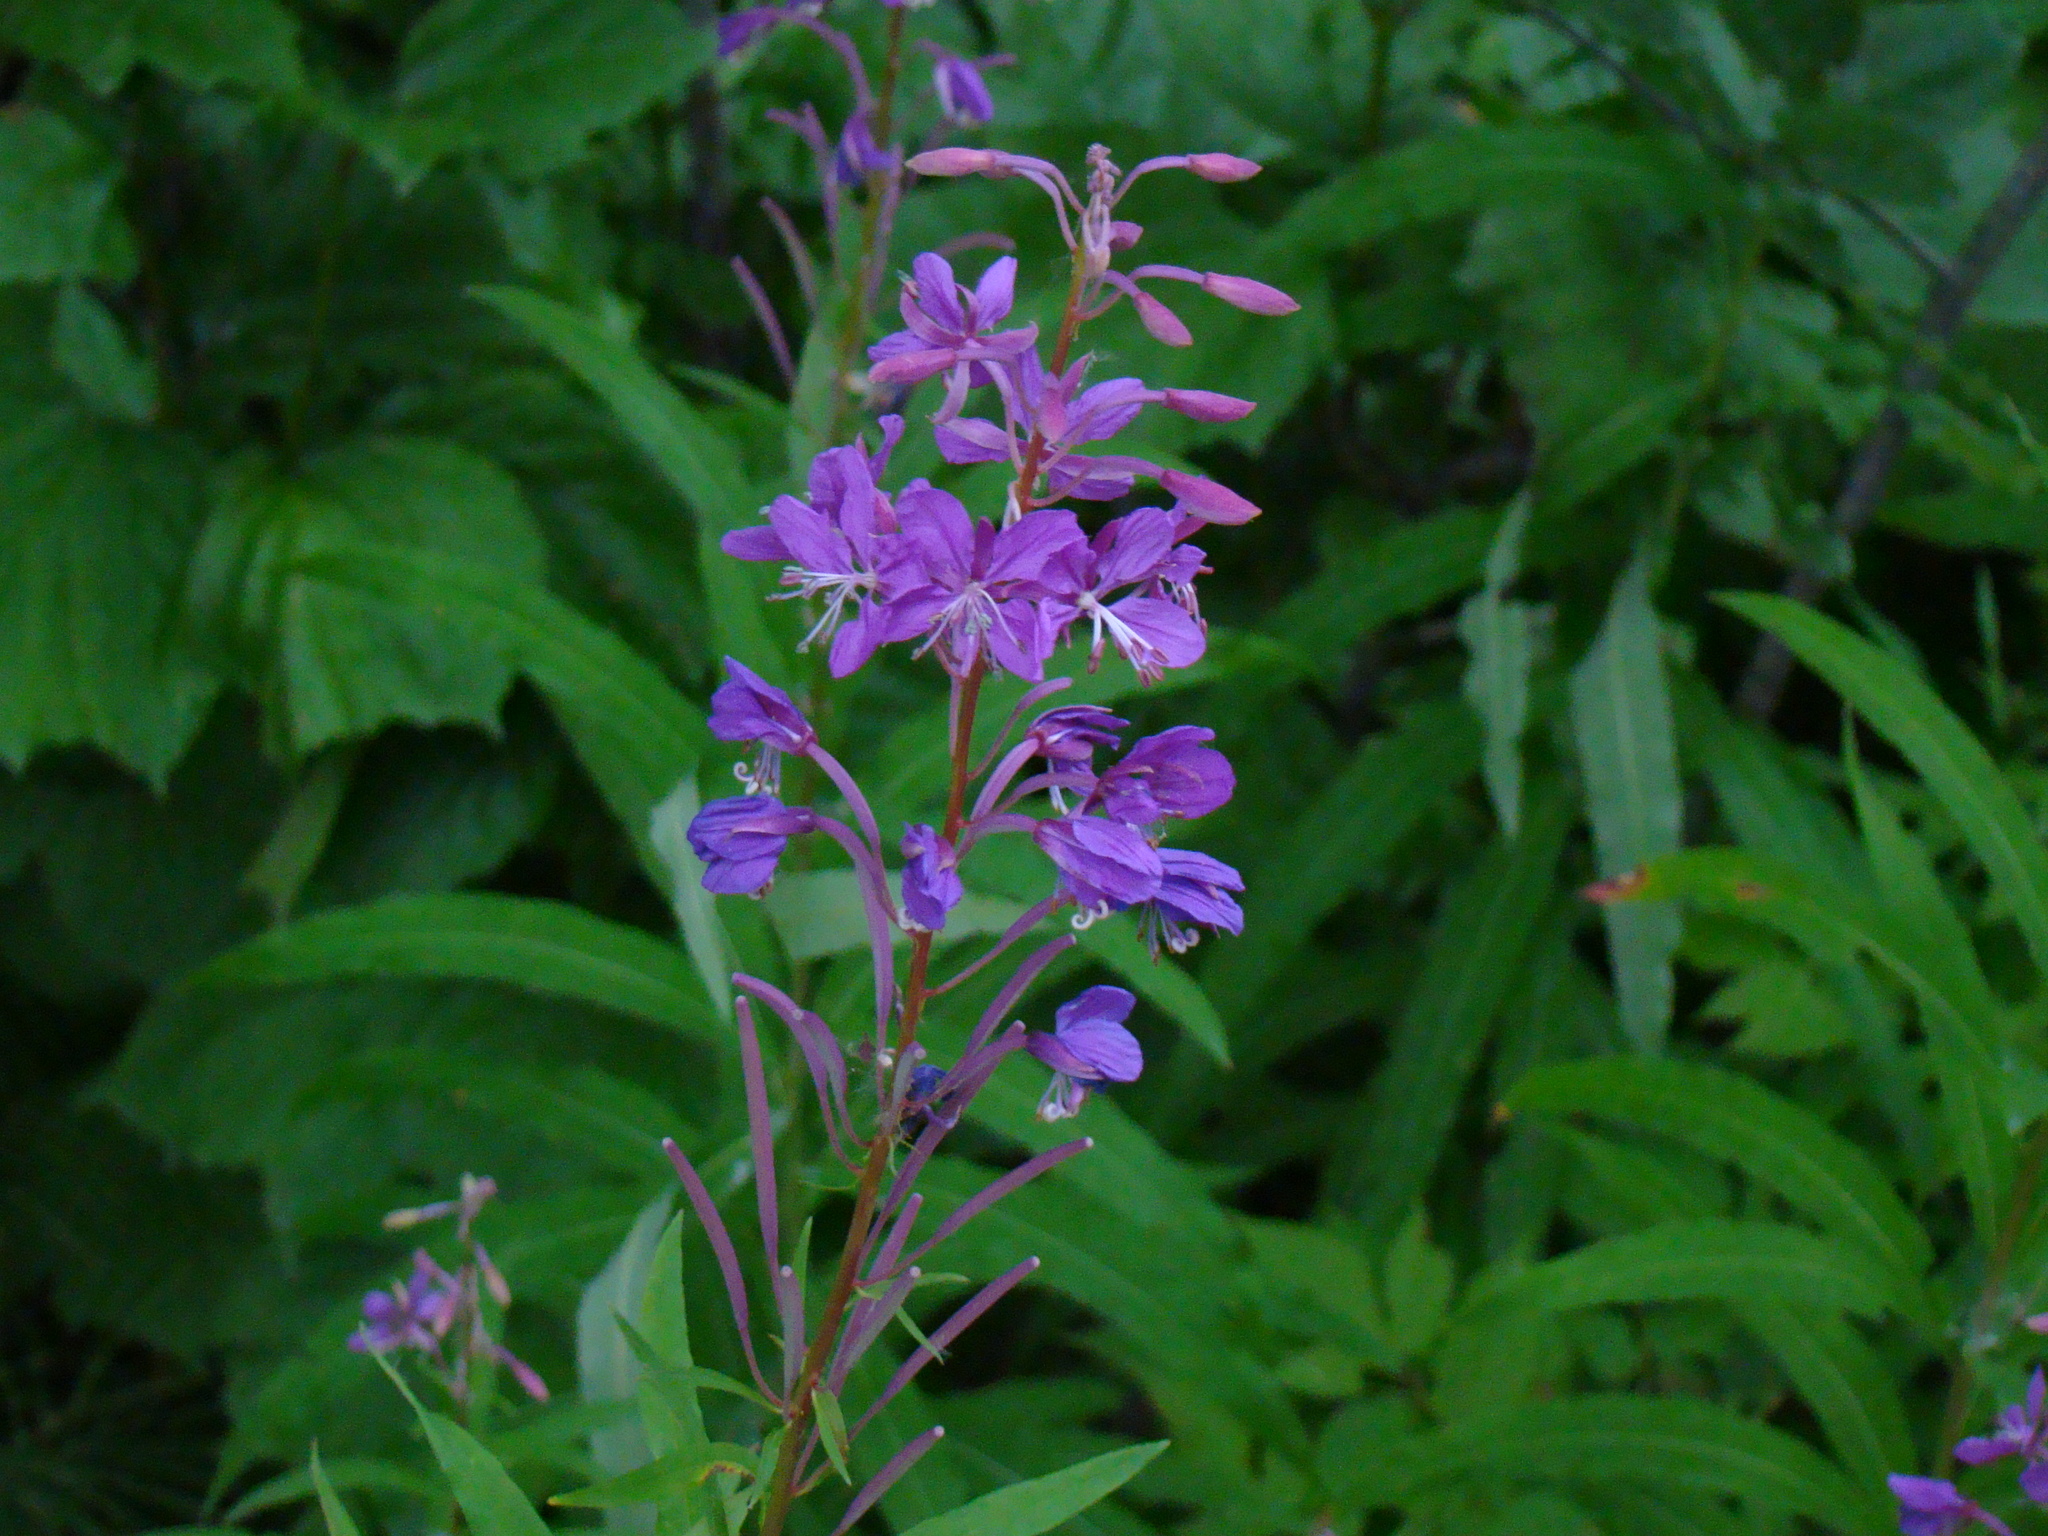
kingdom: Plantae
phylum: Tracheophyta
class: Magnoliopsida
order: Myrtales
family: Onagraceae
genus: Chamaenerion
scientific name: Chamaenerion angustifolium
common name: Fireweed
